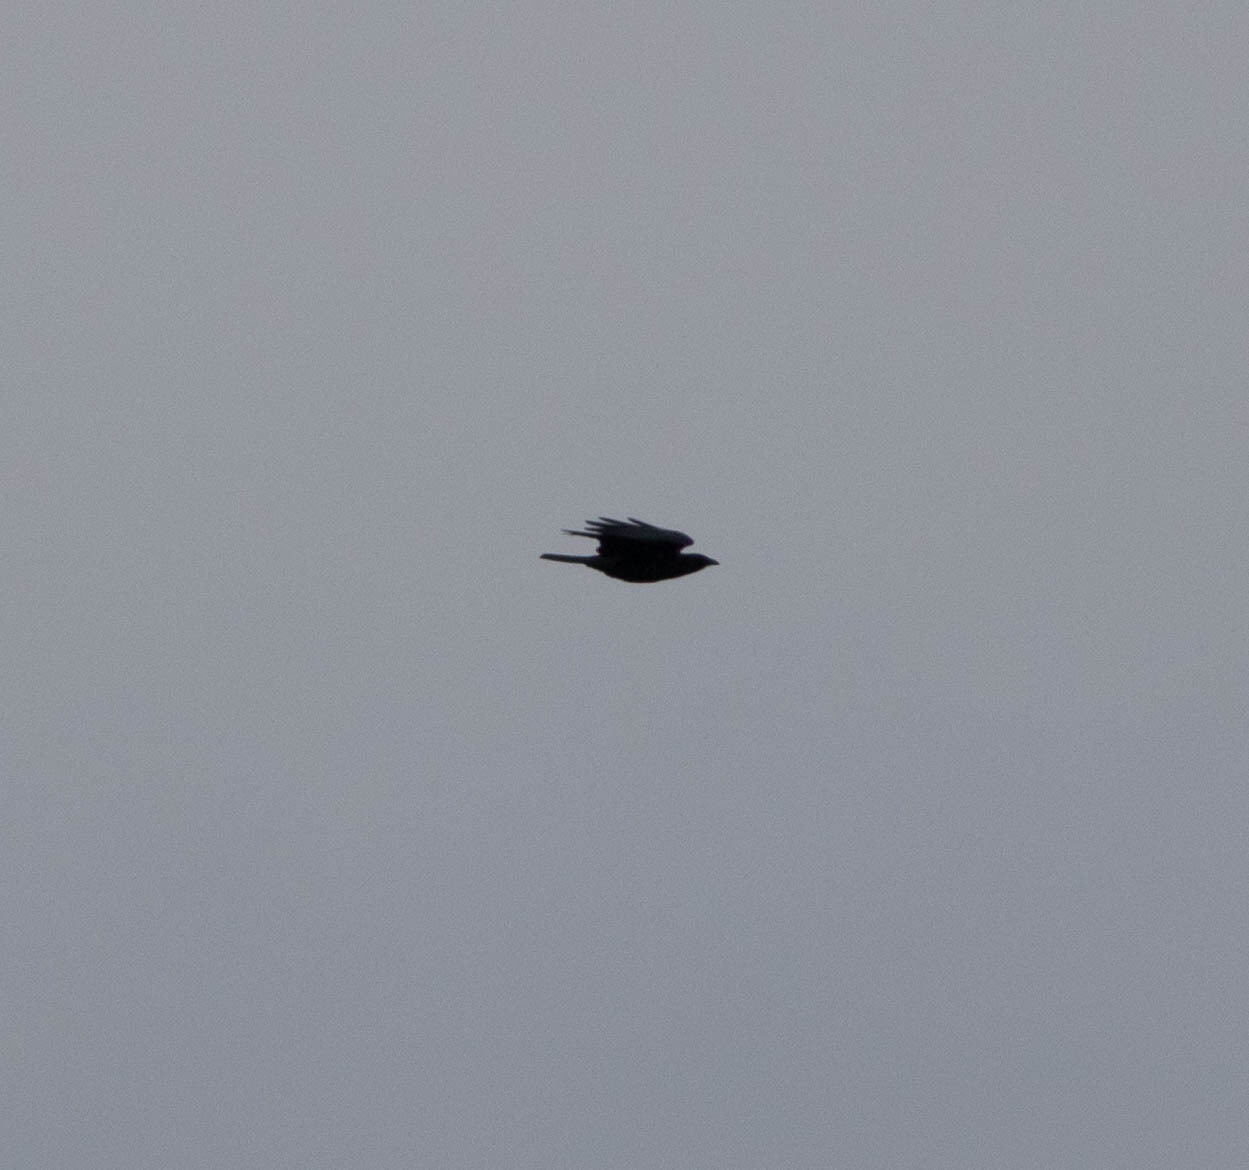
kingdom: Animalia
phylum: Chordata
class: Aves
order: Passeriformes
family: Corvidae
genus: Corvus
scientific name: Corvus ossifragus
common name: Fish crow
